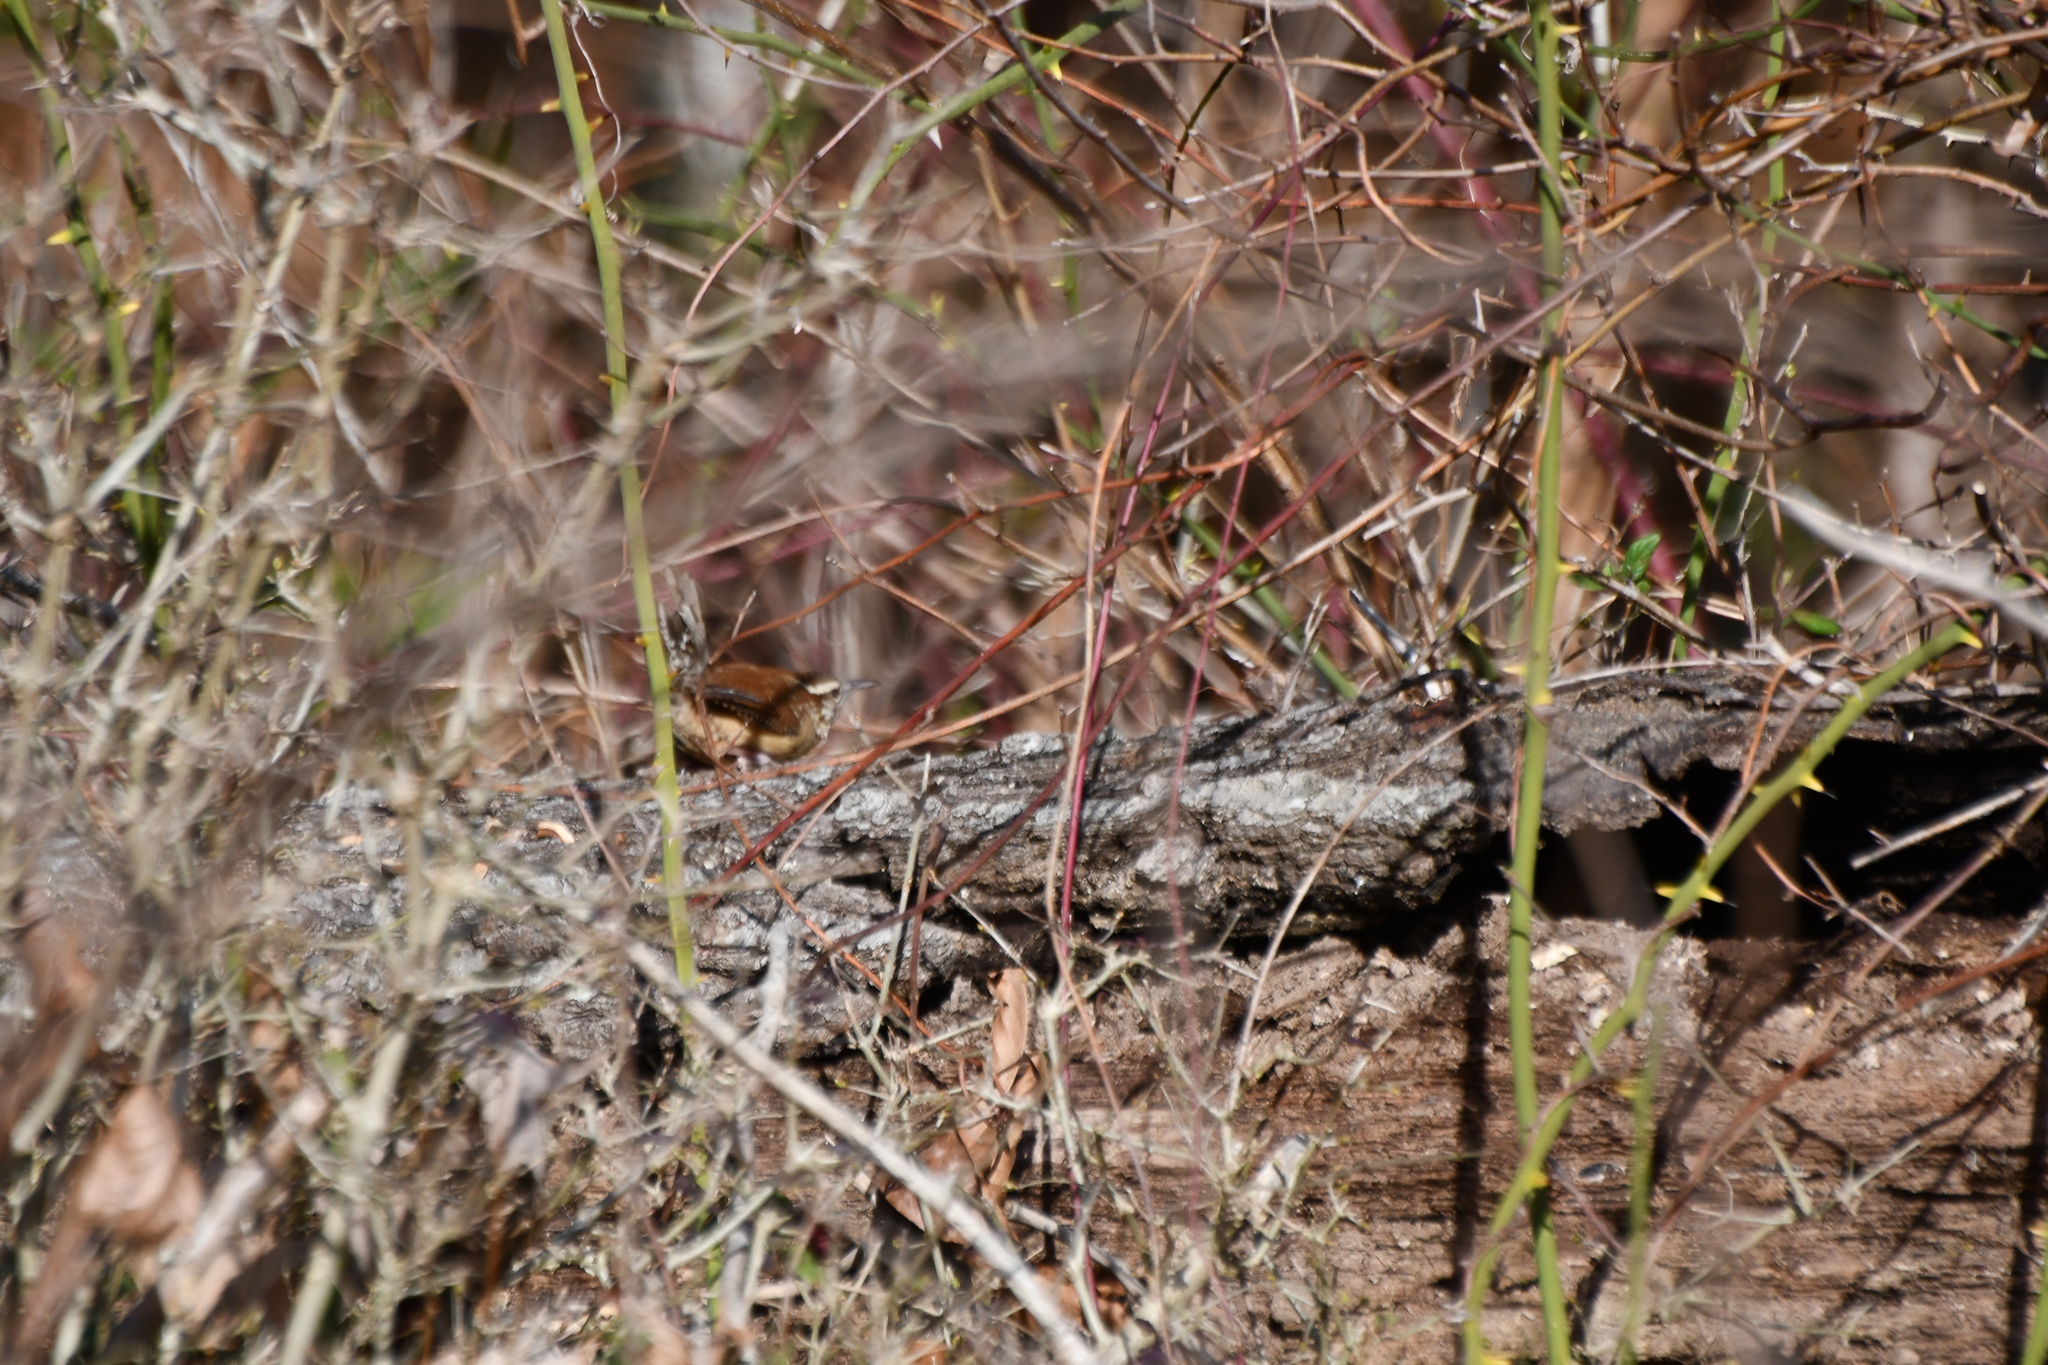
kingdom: Animalia
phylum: Chordata
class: Aves
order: Passeriformes
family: Troglodytidae
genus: Thryothorus
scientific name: Thryothorus ludovicianus
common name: Carolina wren
